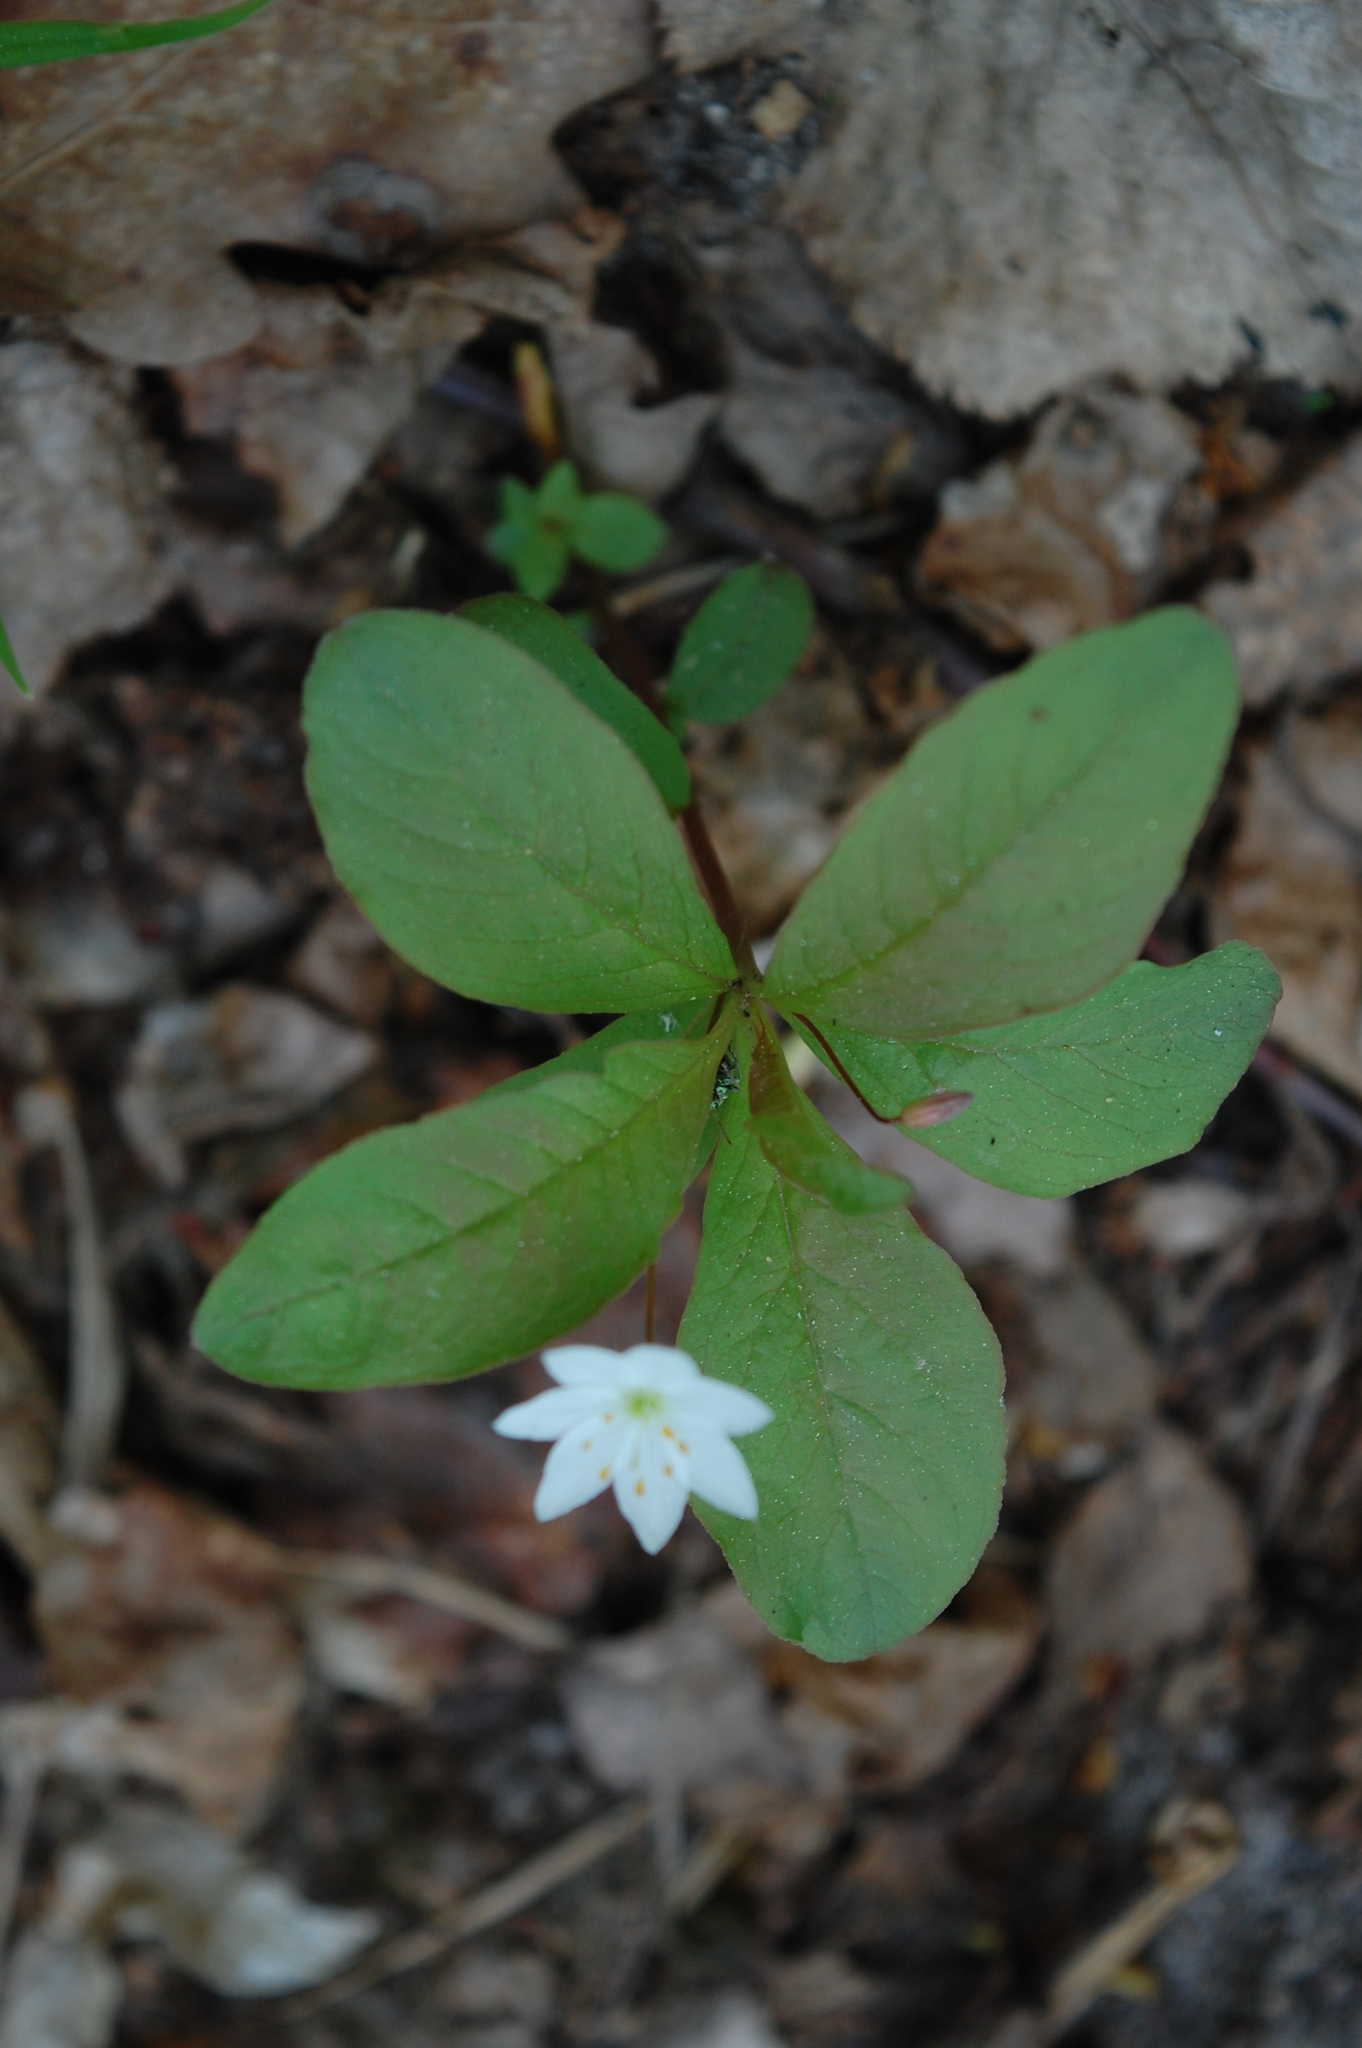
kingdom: Plantae
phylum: Tracheophyta
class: Magnoliopsida
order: Ericales
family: Primulaceae
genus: Lysimachia
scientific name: Lysimachia europaea
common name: Arctic starflower
